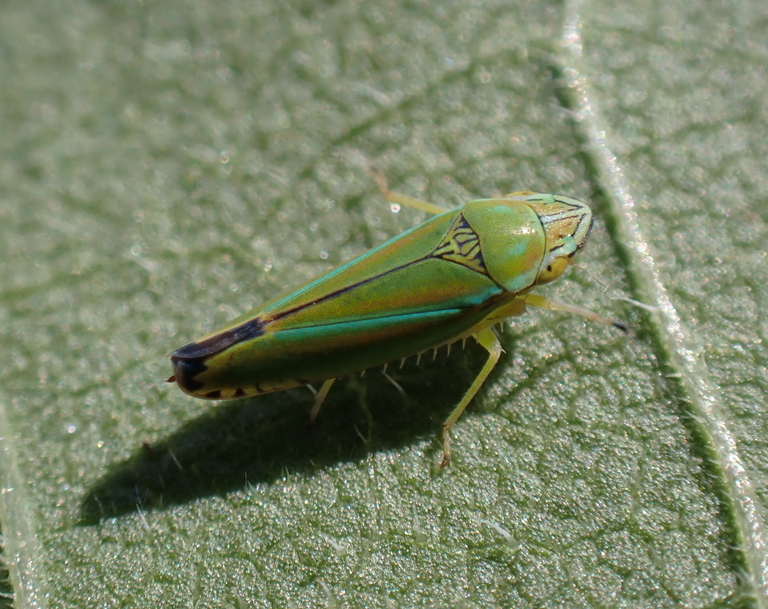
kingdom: Animalia
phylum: Arthropoda
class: Insecta
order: Hemiptera
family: Cicadellidae
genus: Graphocephala
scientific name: Graphocephala versuta
